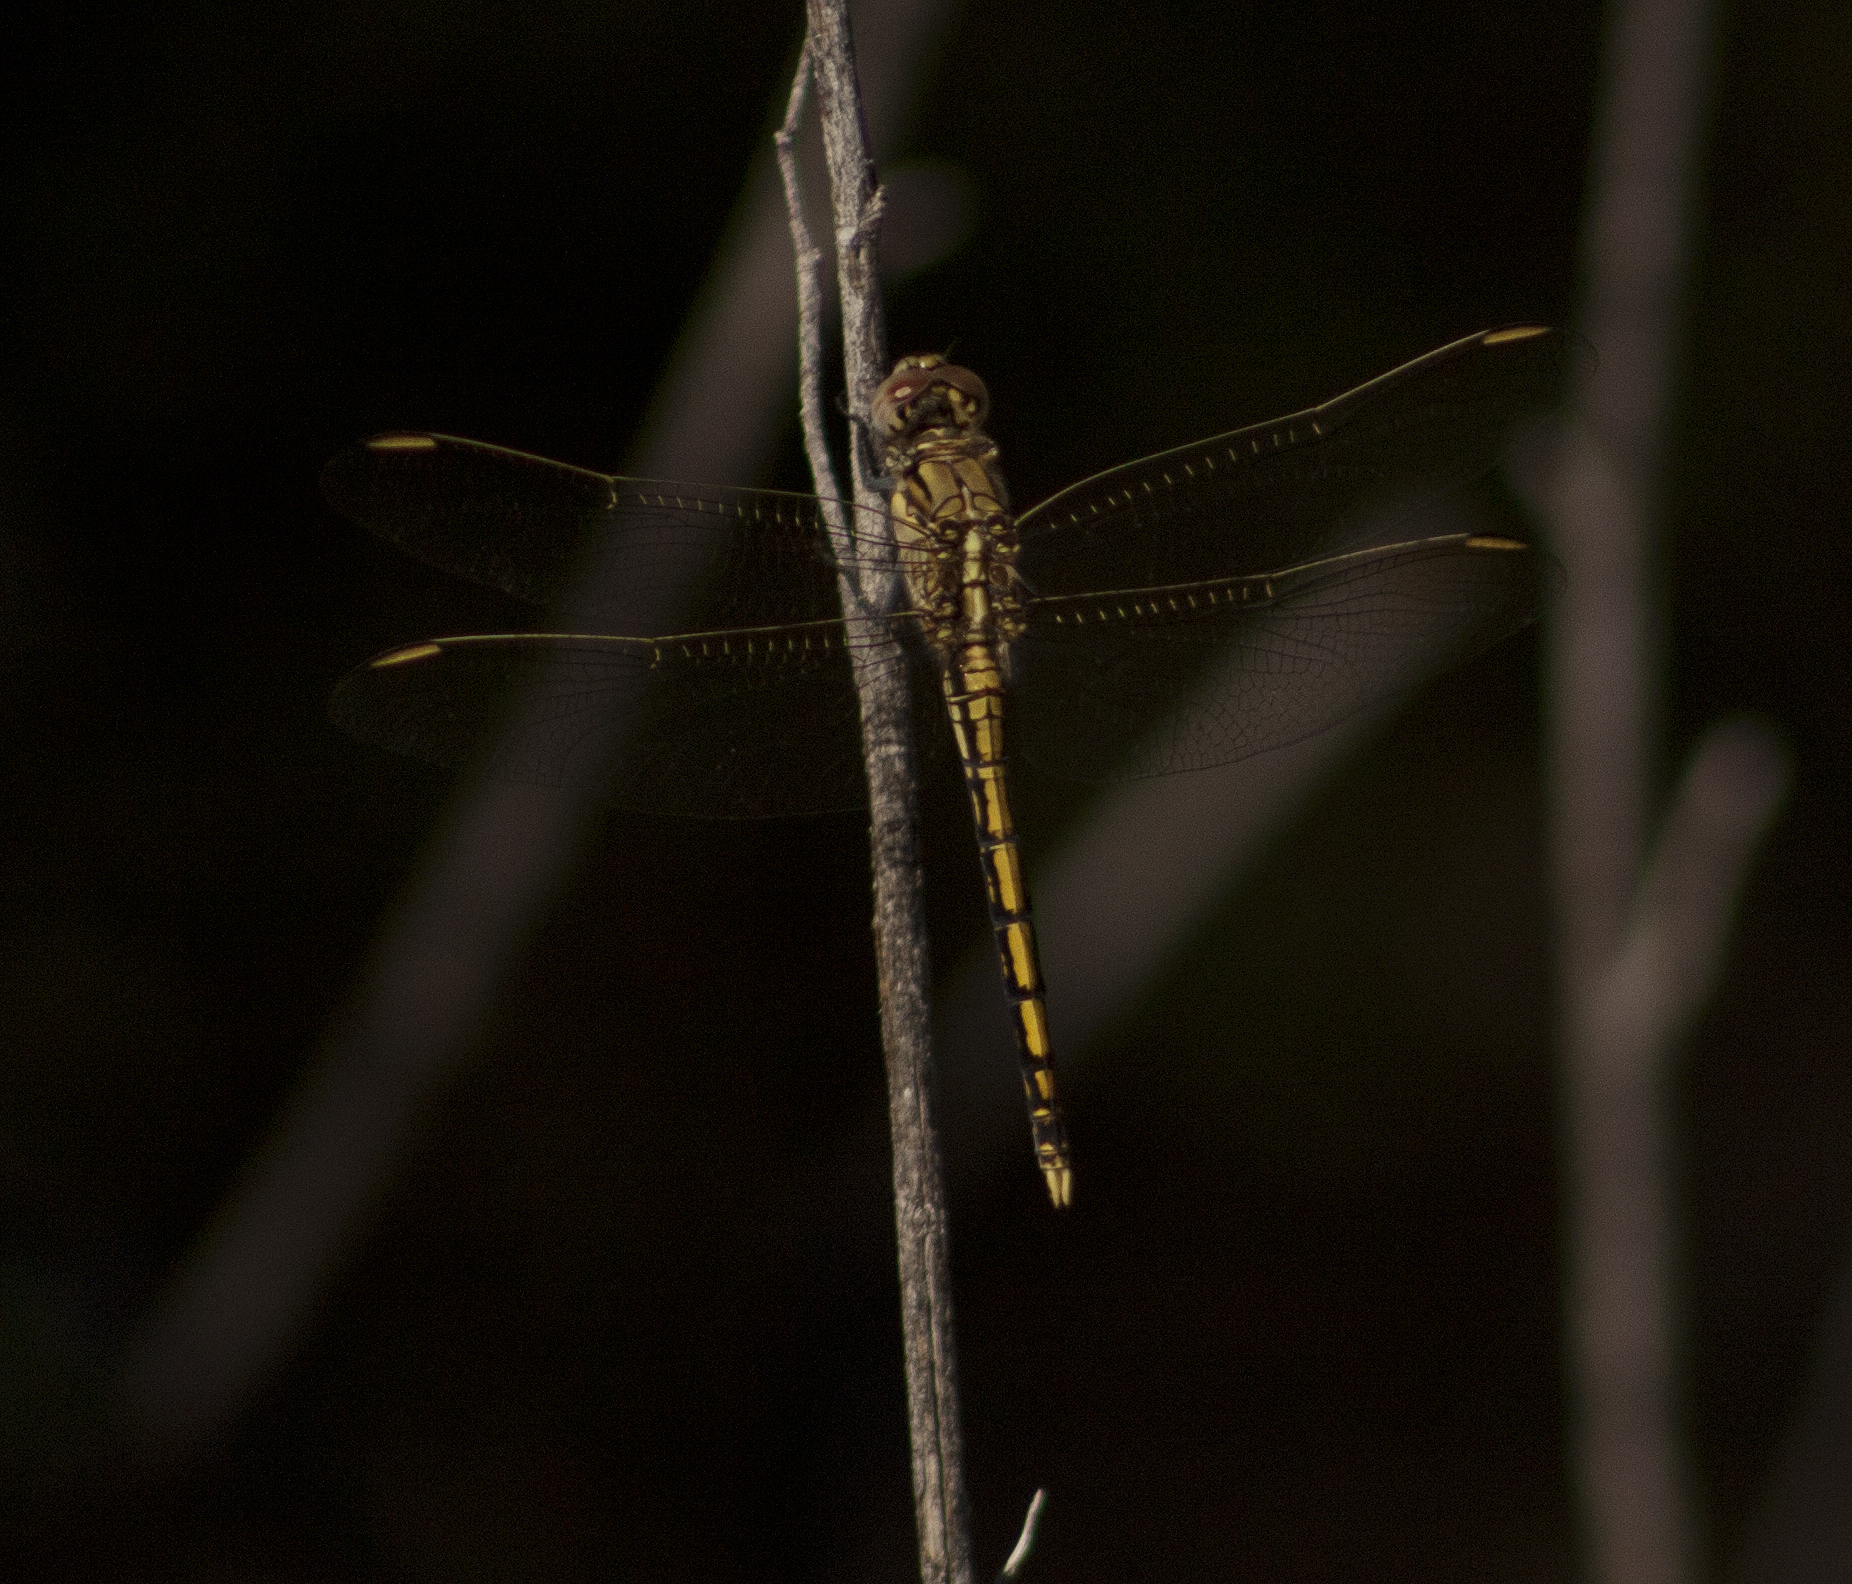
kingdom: Animalia
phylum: Arthropoda
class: Insecta
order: Odonata
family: Libellulidae
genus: Orthetrum
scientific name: Orthetrum caledonicum
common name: Blue skimmer
